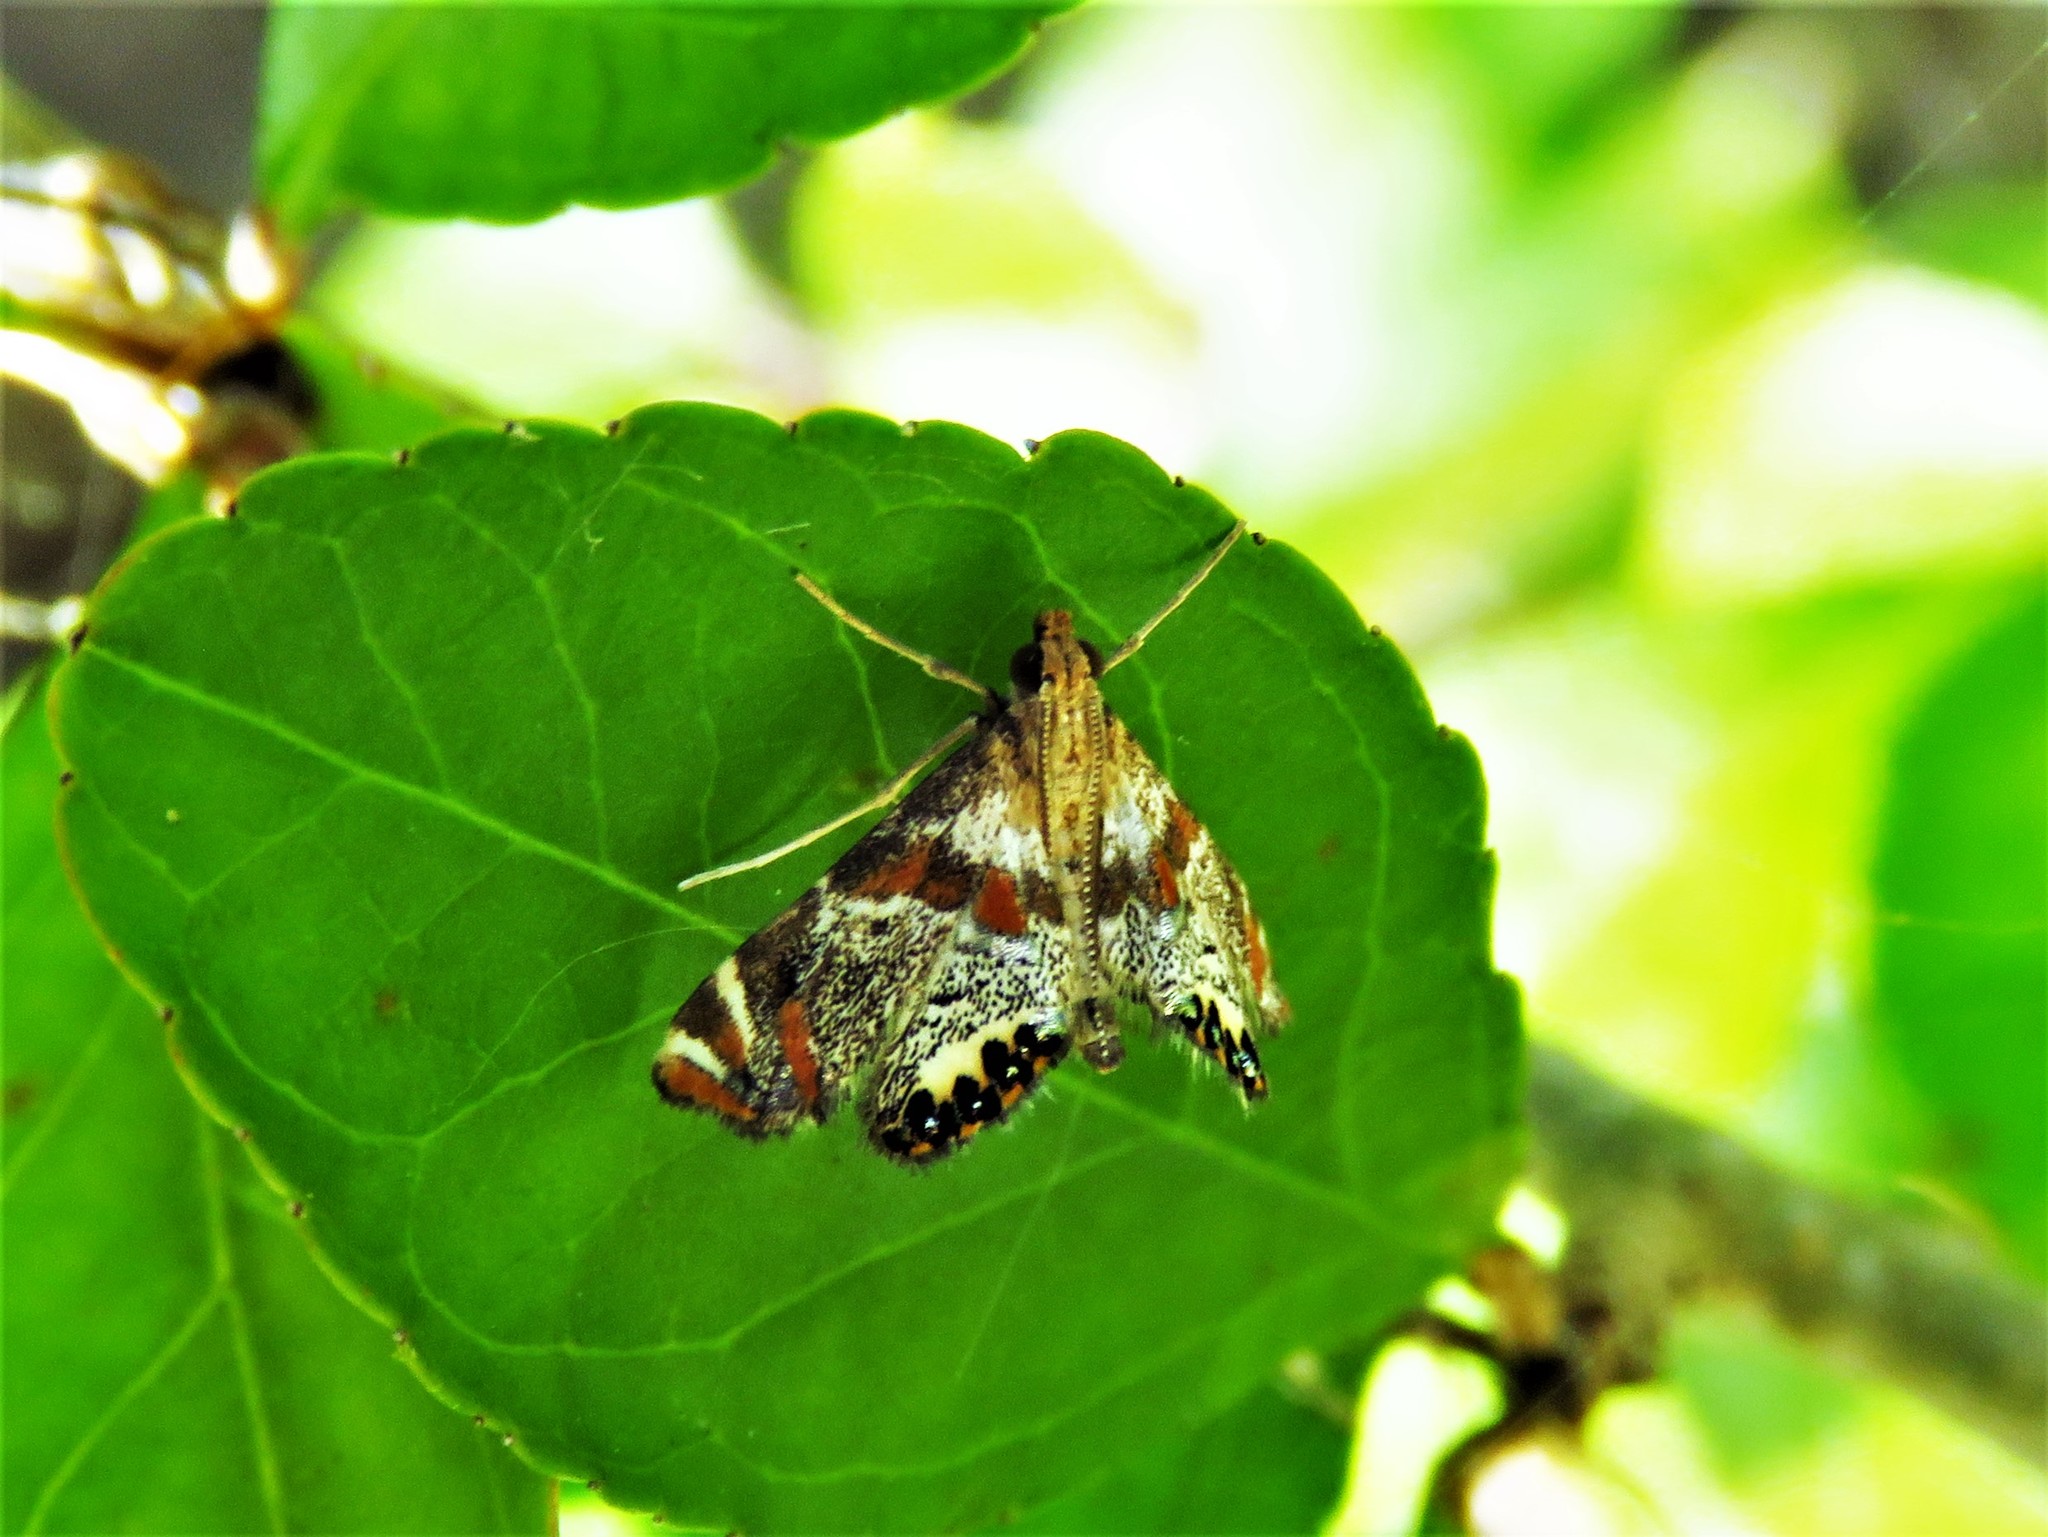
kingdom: Animalia
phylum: Arthropoda
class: Insecta
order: Lepidoptera
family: Crambidae
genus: Petrophila
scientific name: Petrophila jaliscalis
